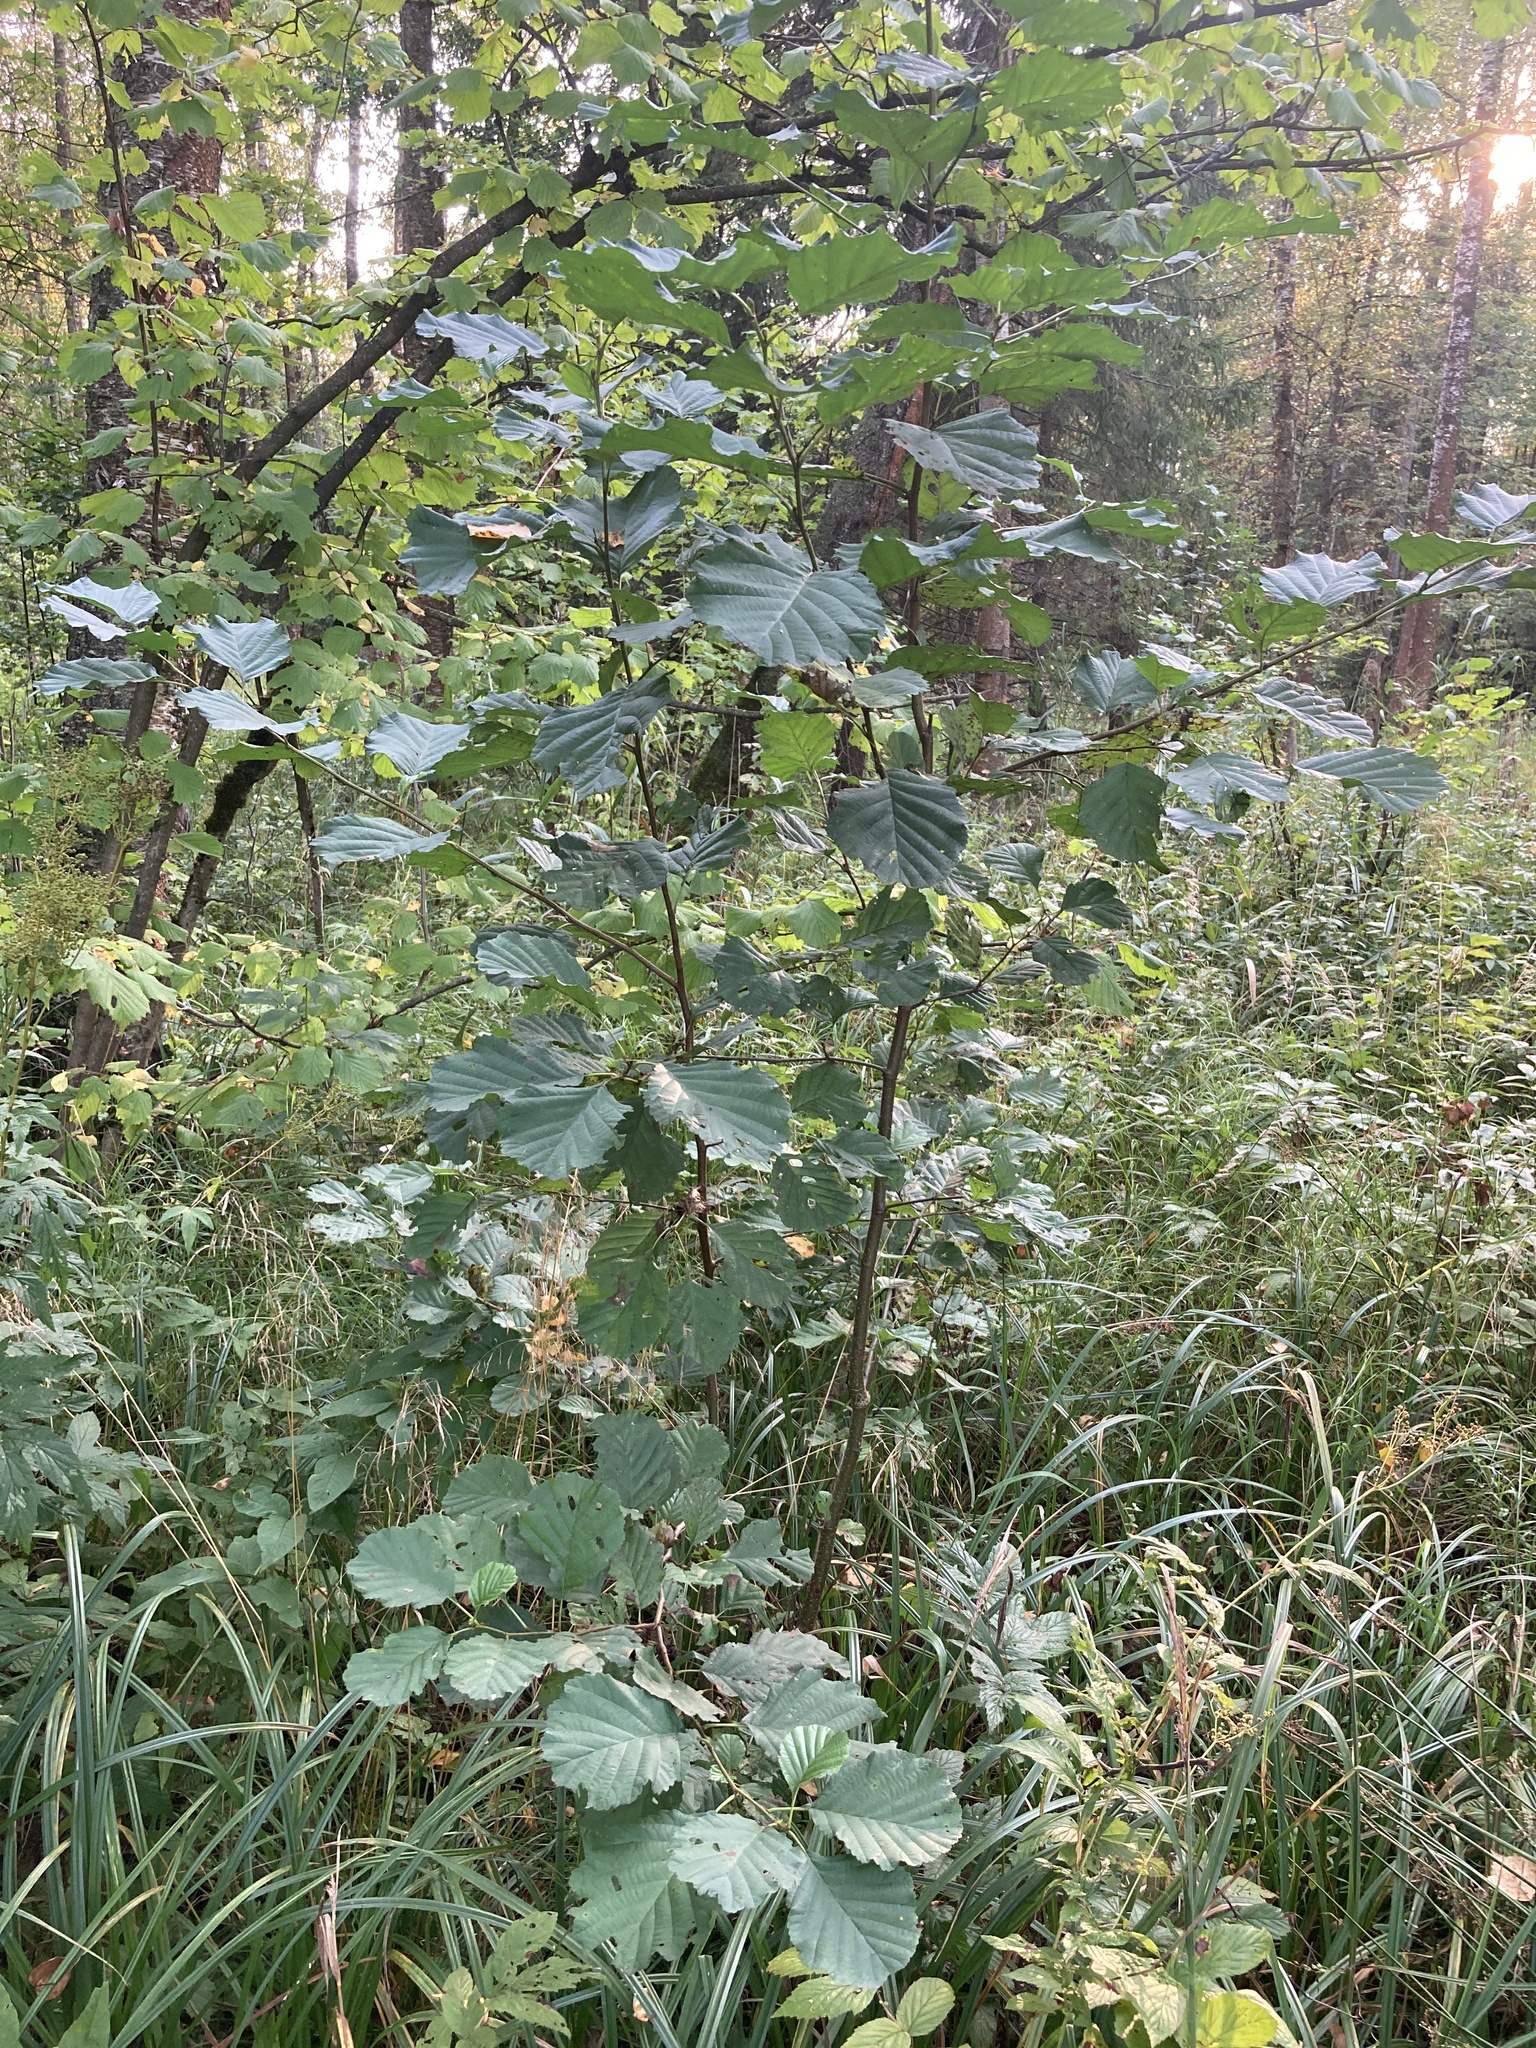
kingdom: Plantae
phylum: Tracheophyta
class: Magnoliopsida
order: Fagales
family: Betulaceae
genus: Alnus
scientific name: Alnus glutinosa
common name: Black alder
